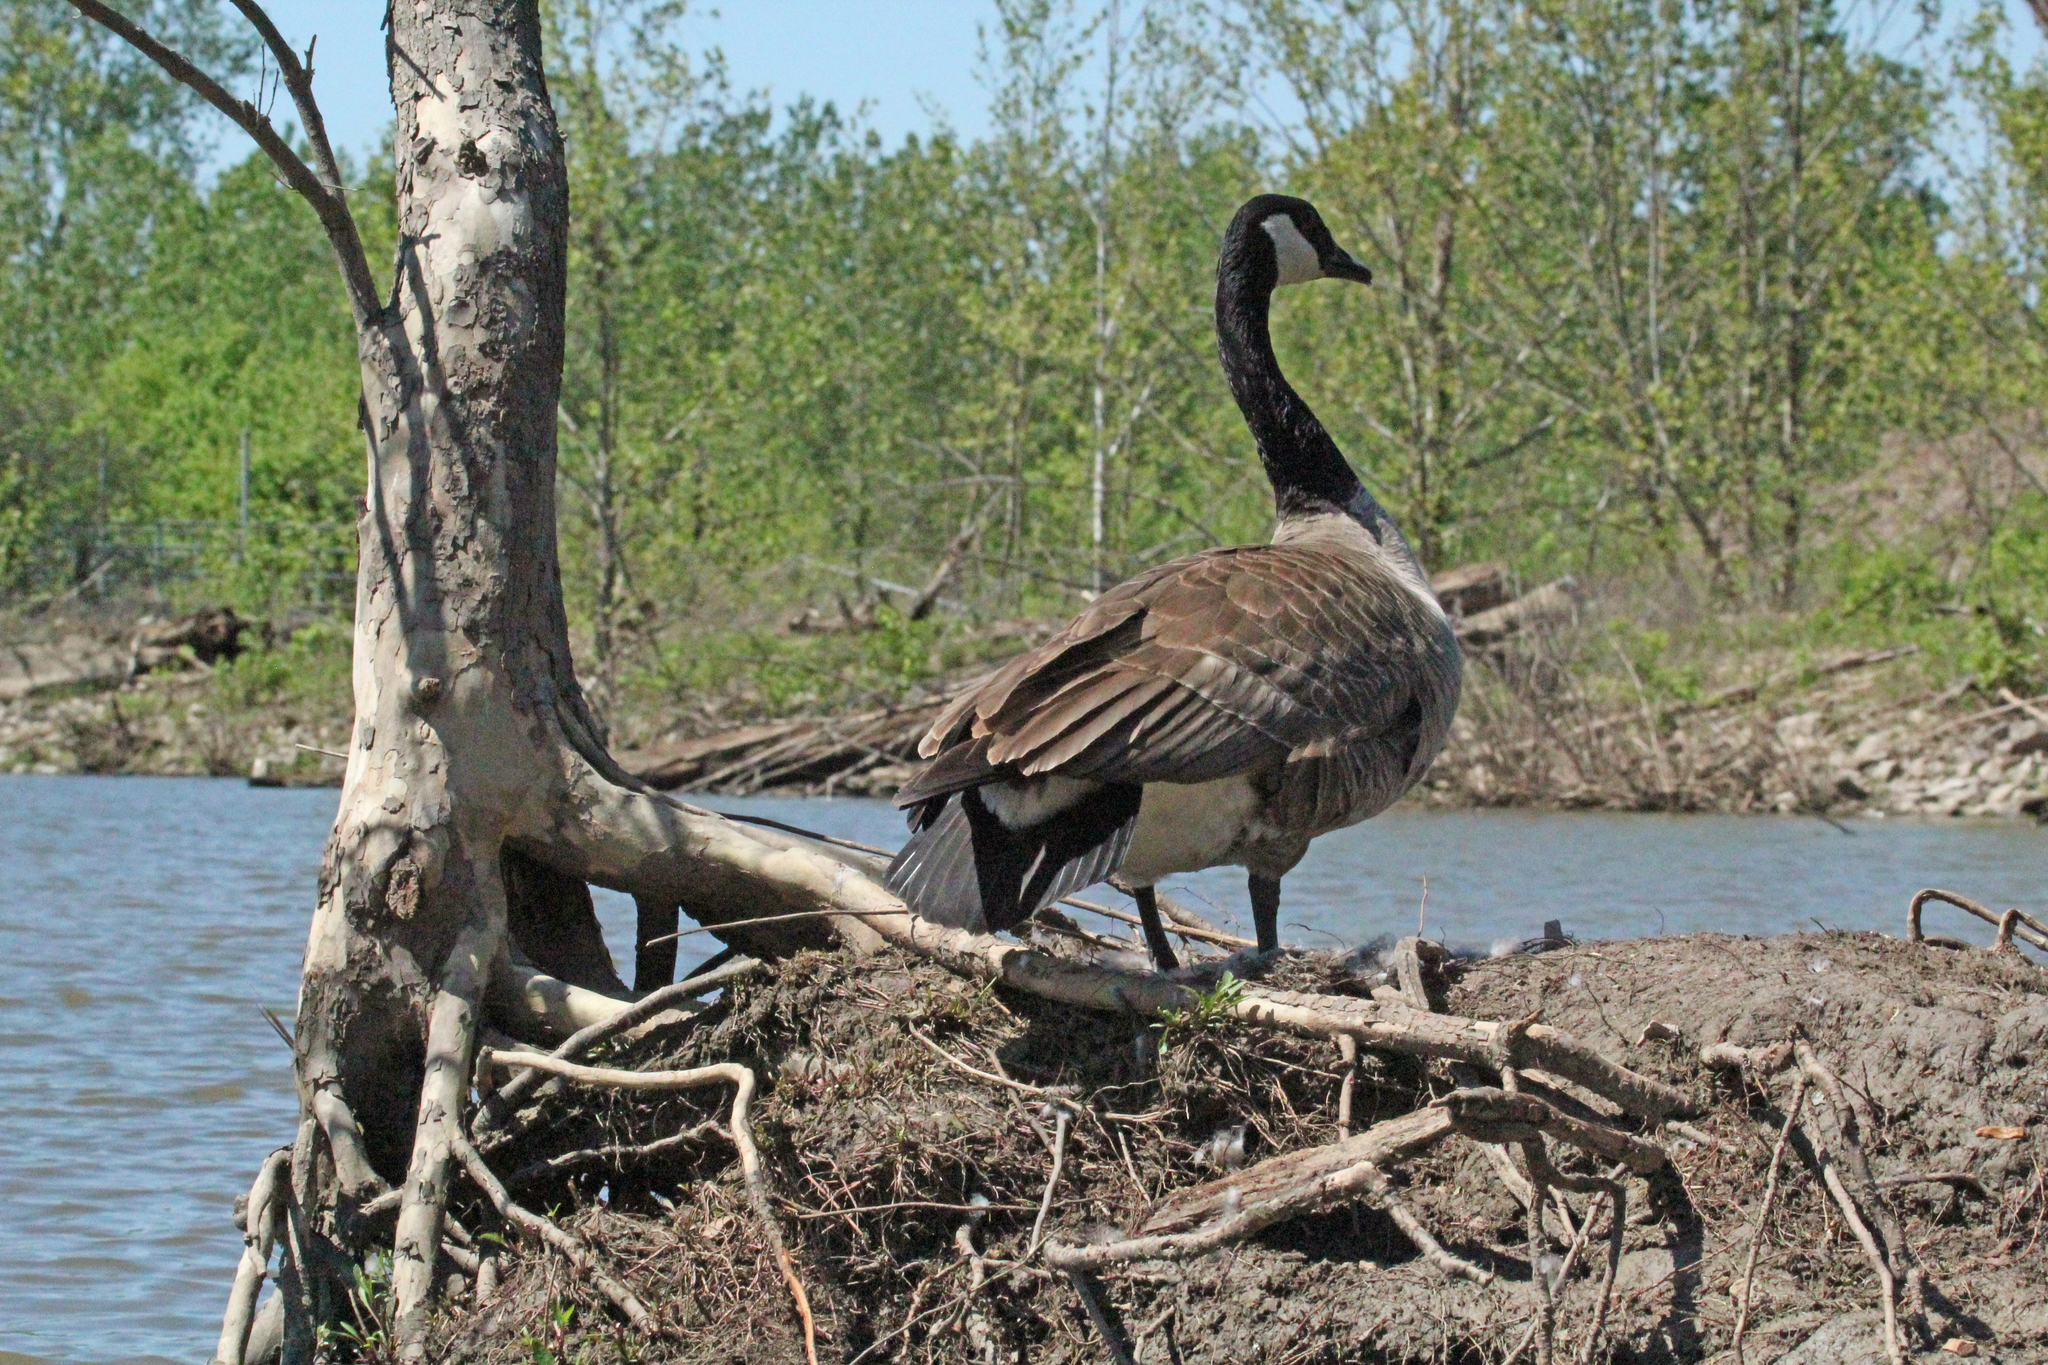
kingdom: Animalia
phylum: Chordata
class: Aves
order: Anseriformes
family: Anatidae
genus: Branta
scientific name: Branta canadensis
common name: Canada goose
